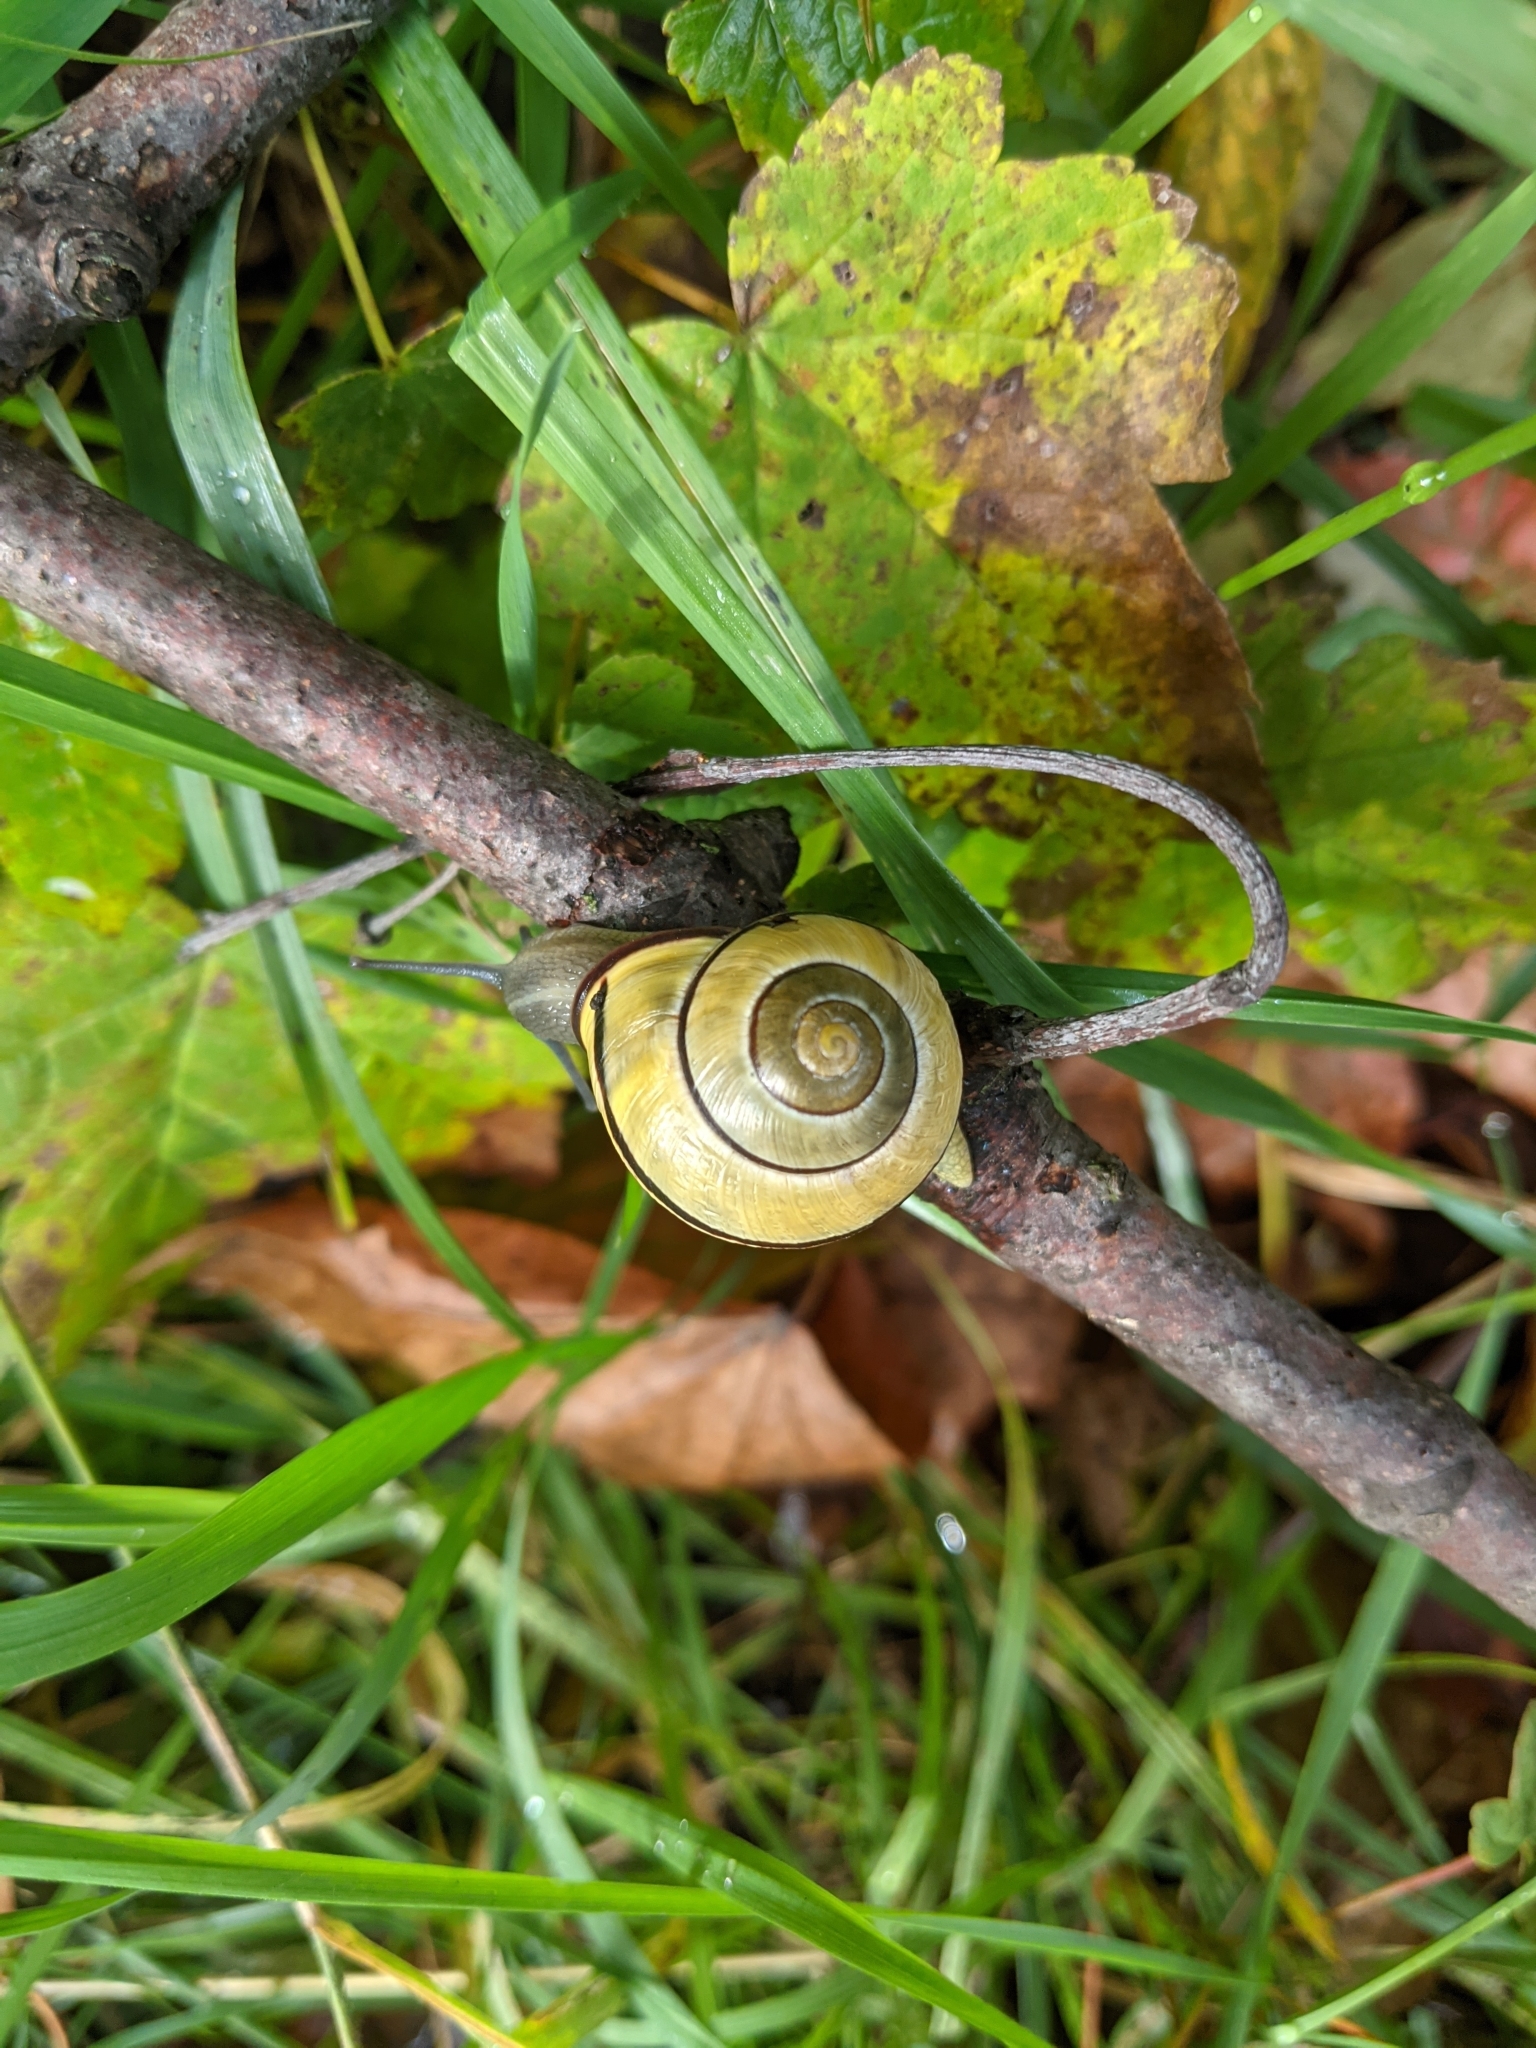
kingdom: Animalia
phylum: Mollusca
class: Gastropoda
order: Stylommatophora
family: Helicidae
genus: Cepaea
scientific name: Cepaea nemoralis
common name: Grovesnail
